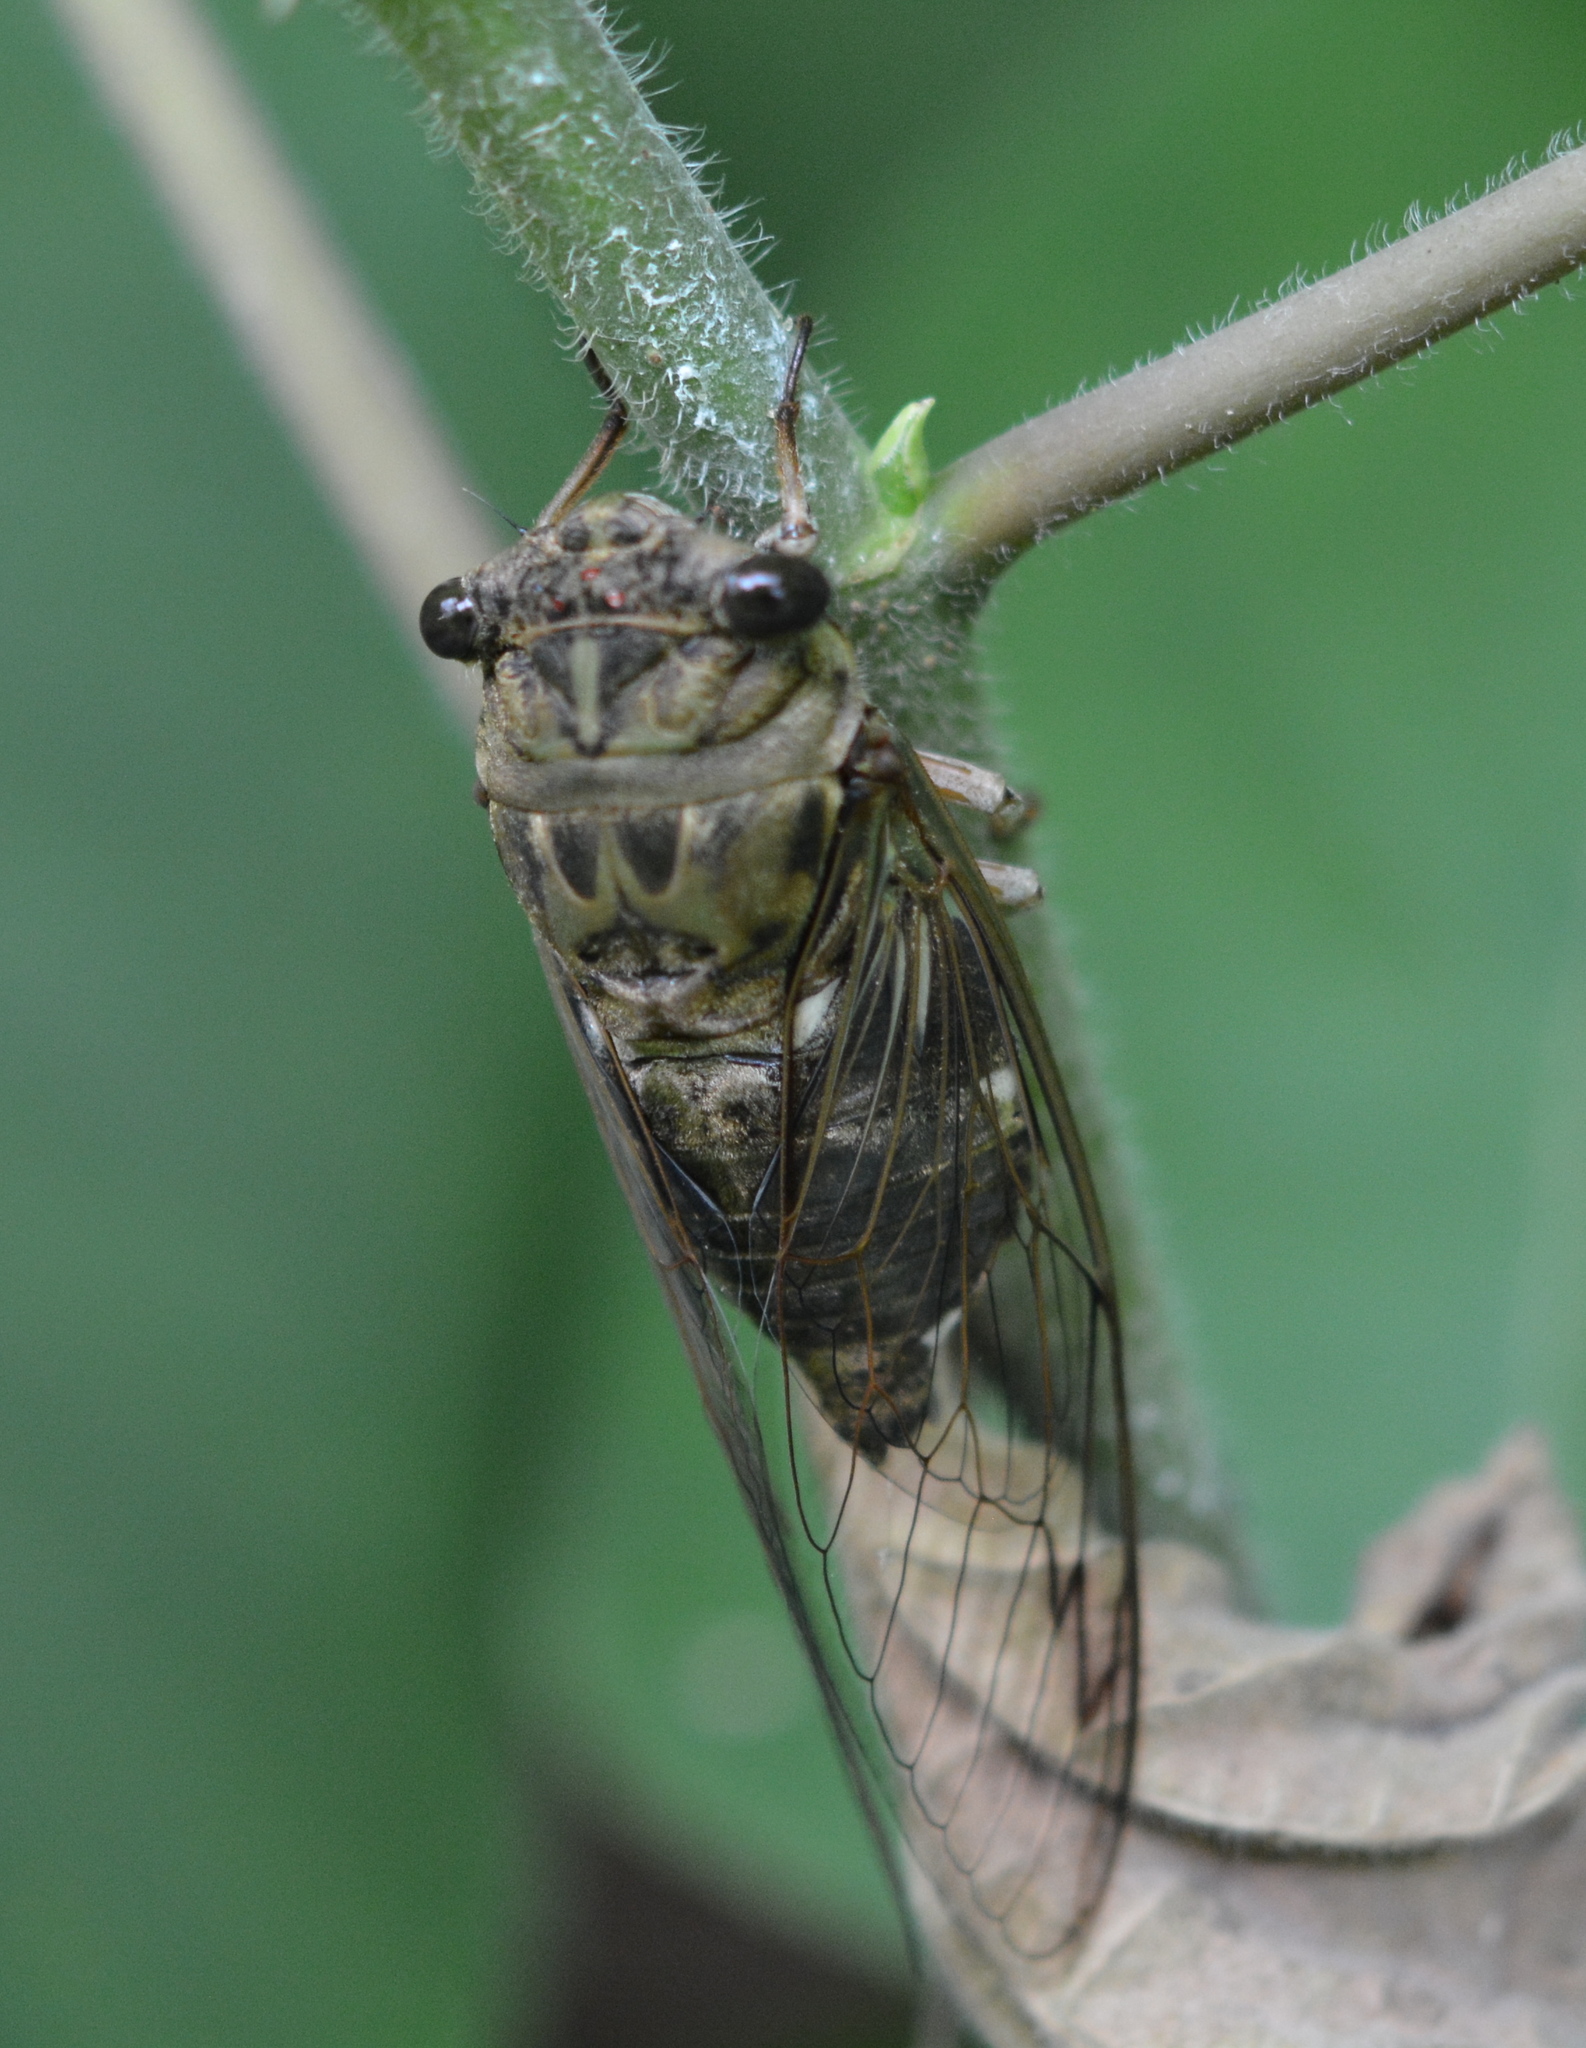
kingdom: Animalia
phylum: Arthropoda
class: Insecta
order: Hemiptera
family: Cicadidae
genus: Neotibicen
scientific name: Neotibicen pruinosus
